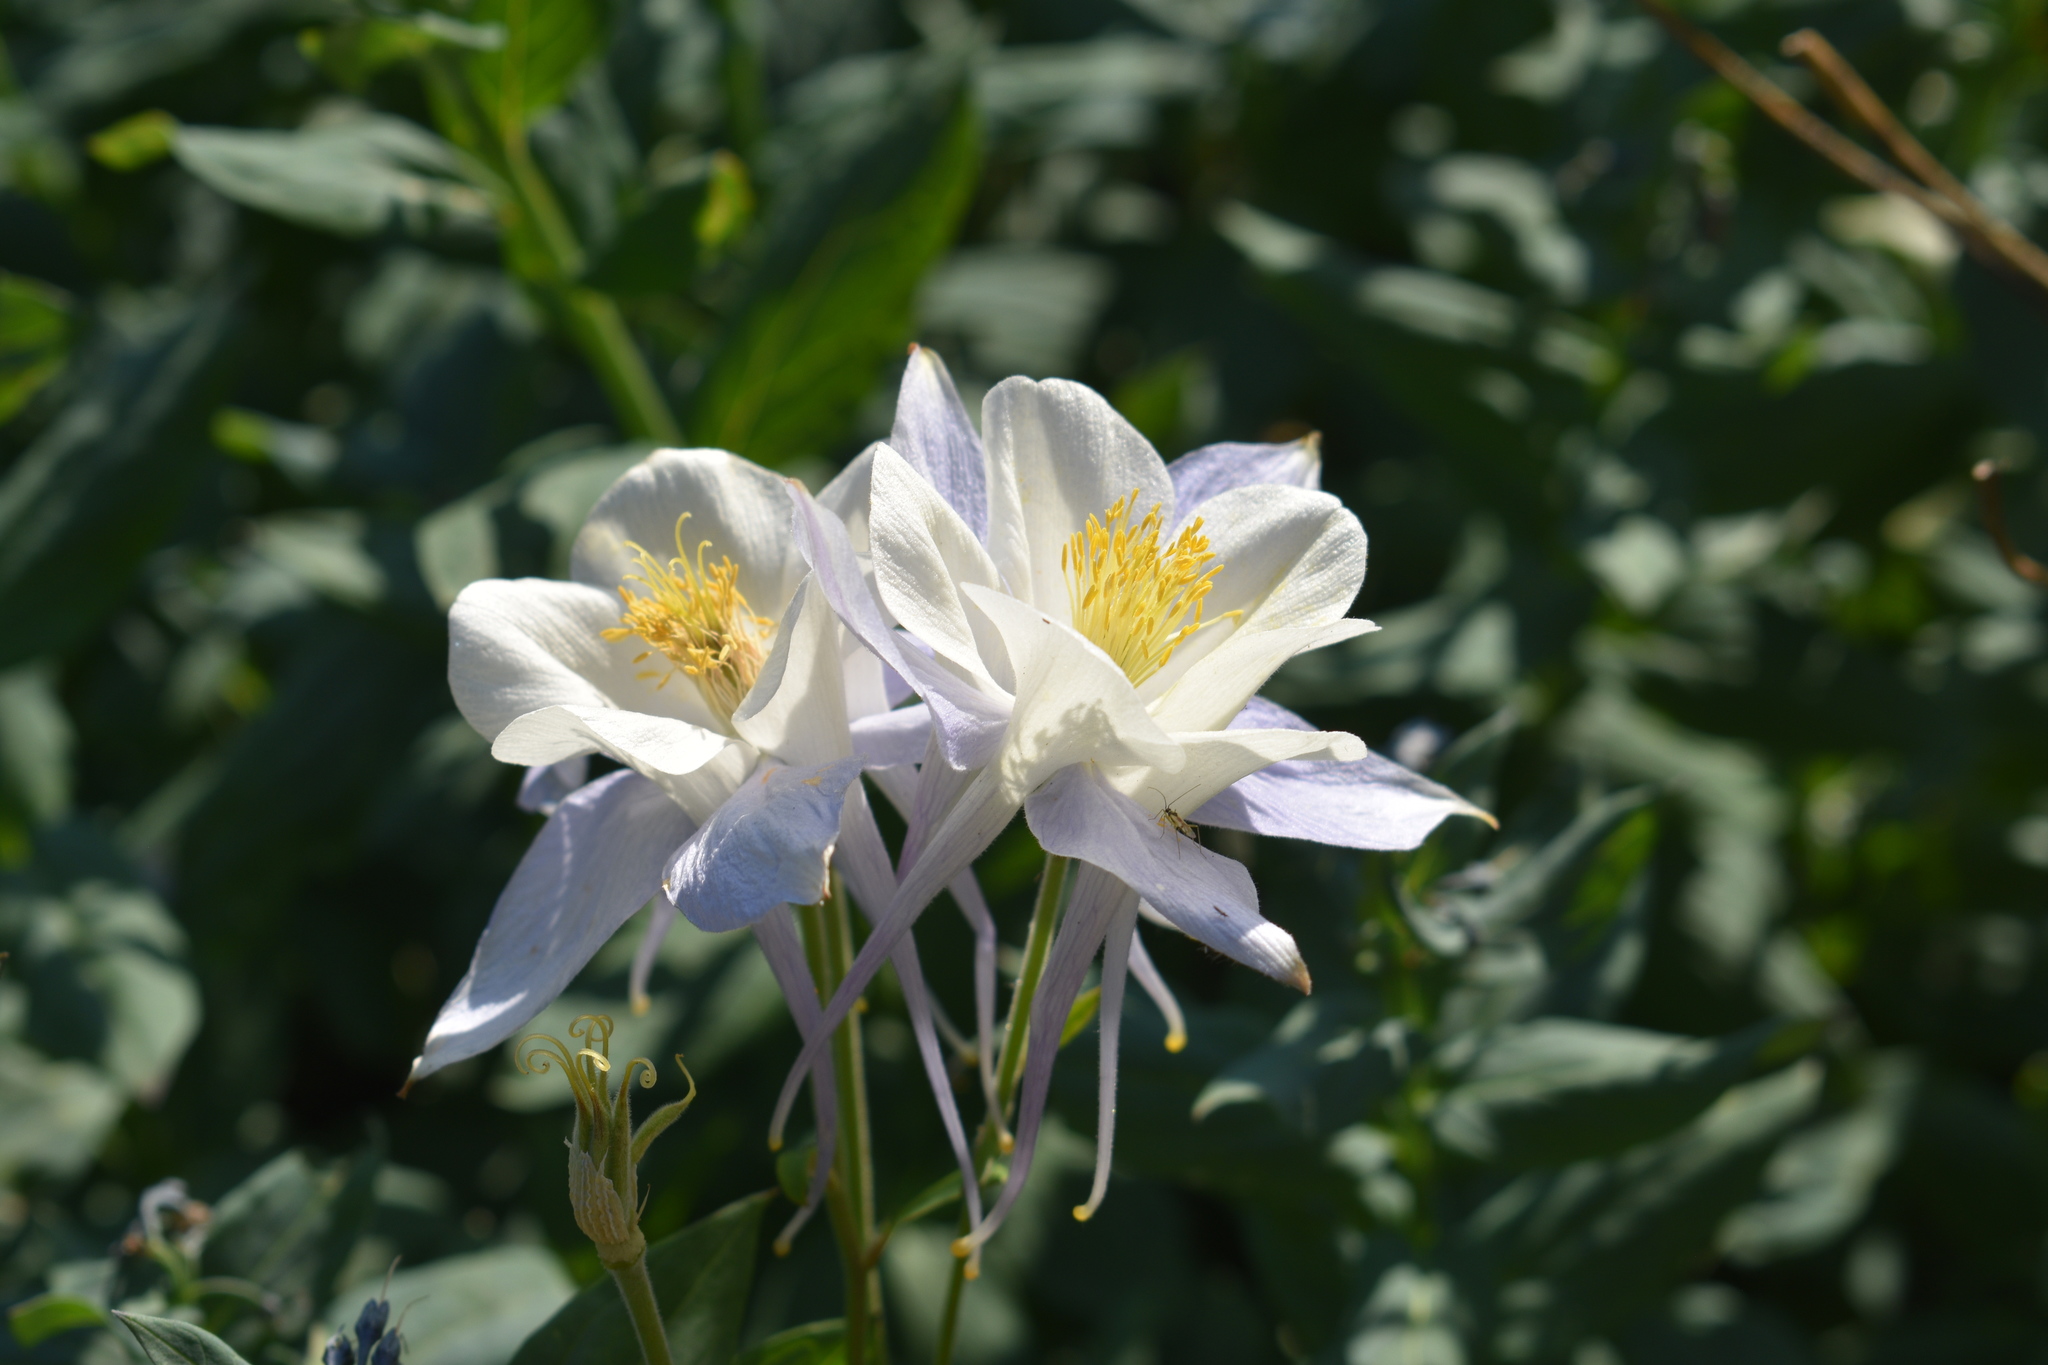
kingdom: Plantae
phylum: Tracheophyta
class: Magnoliopsida
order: Ranunculales
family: Ranunculaceae
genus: Aquilegia
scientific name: Aquilegia coerulea
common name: Rocky mountain columbine
